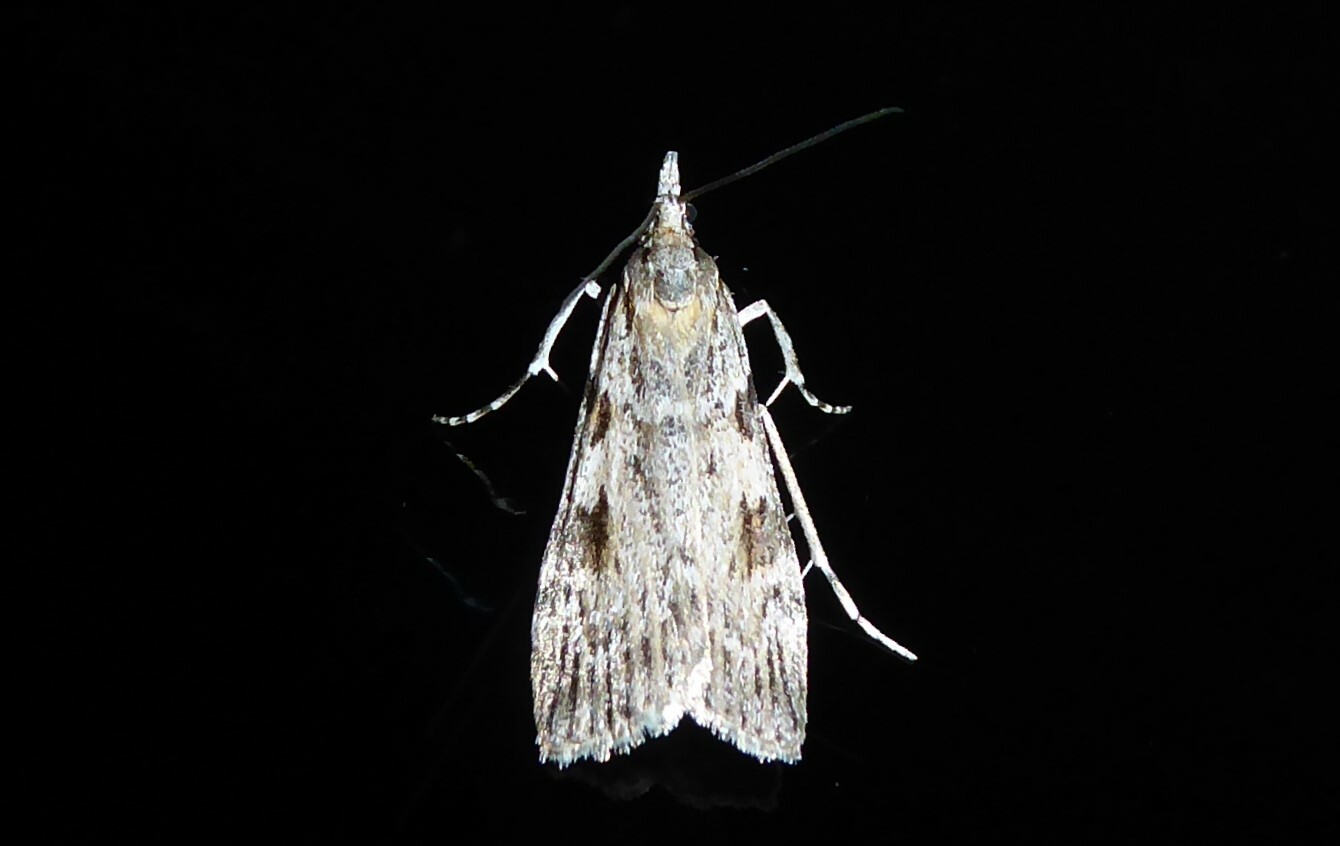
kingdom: Animalia
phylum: Arthropoda
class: Insecta
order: Lepidoptera
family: Crambidae
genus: Scoparia
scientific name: Scoparia halopis
